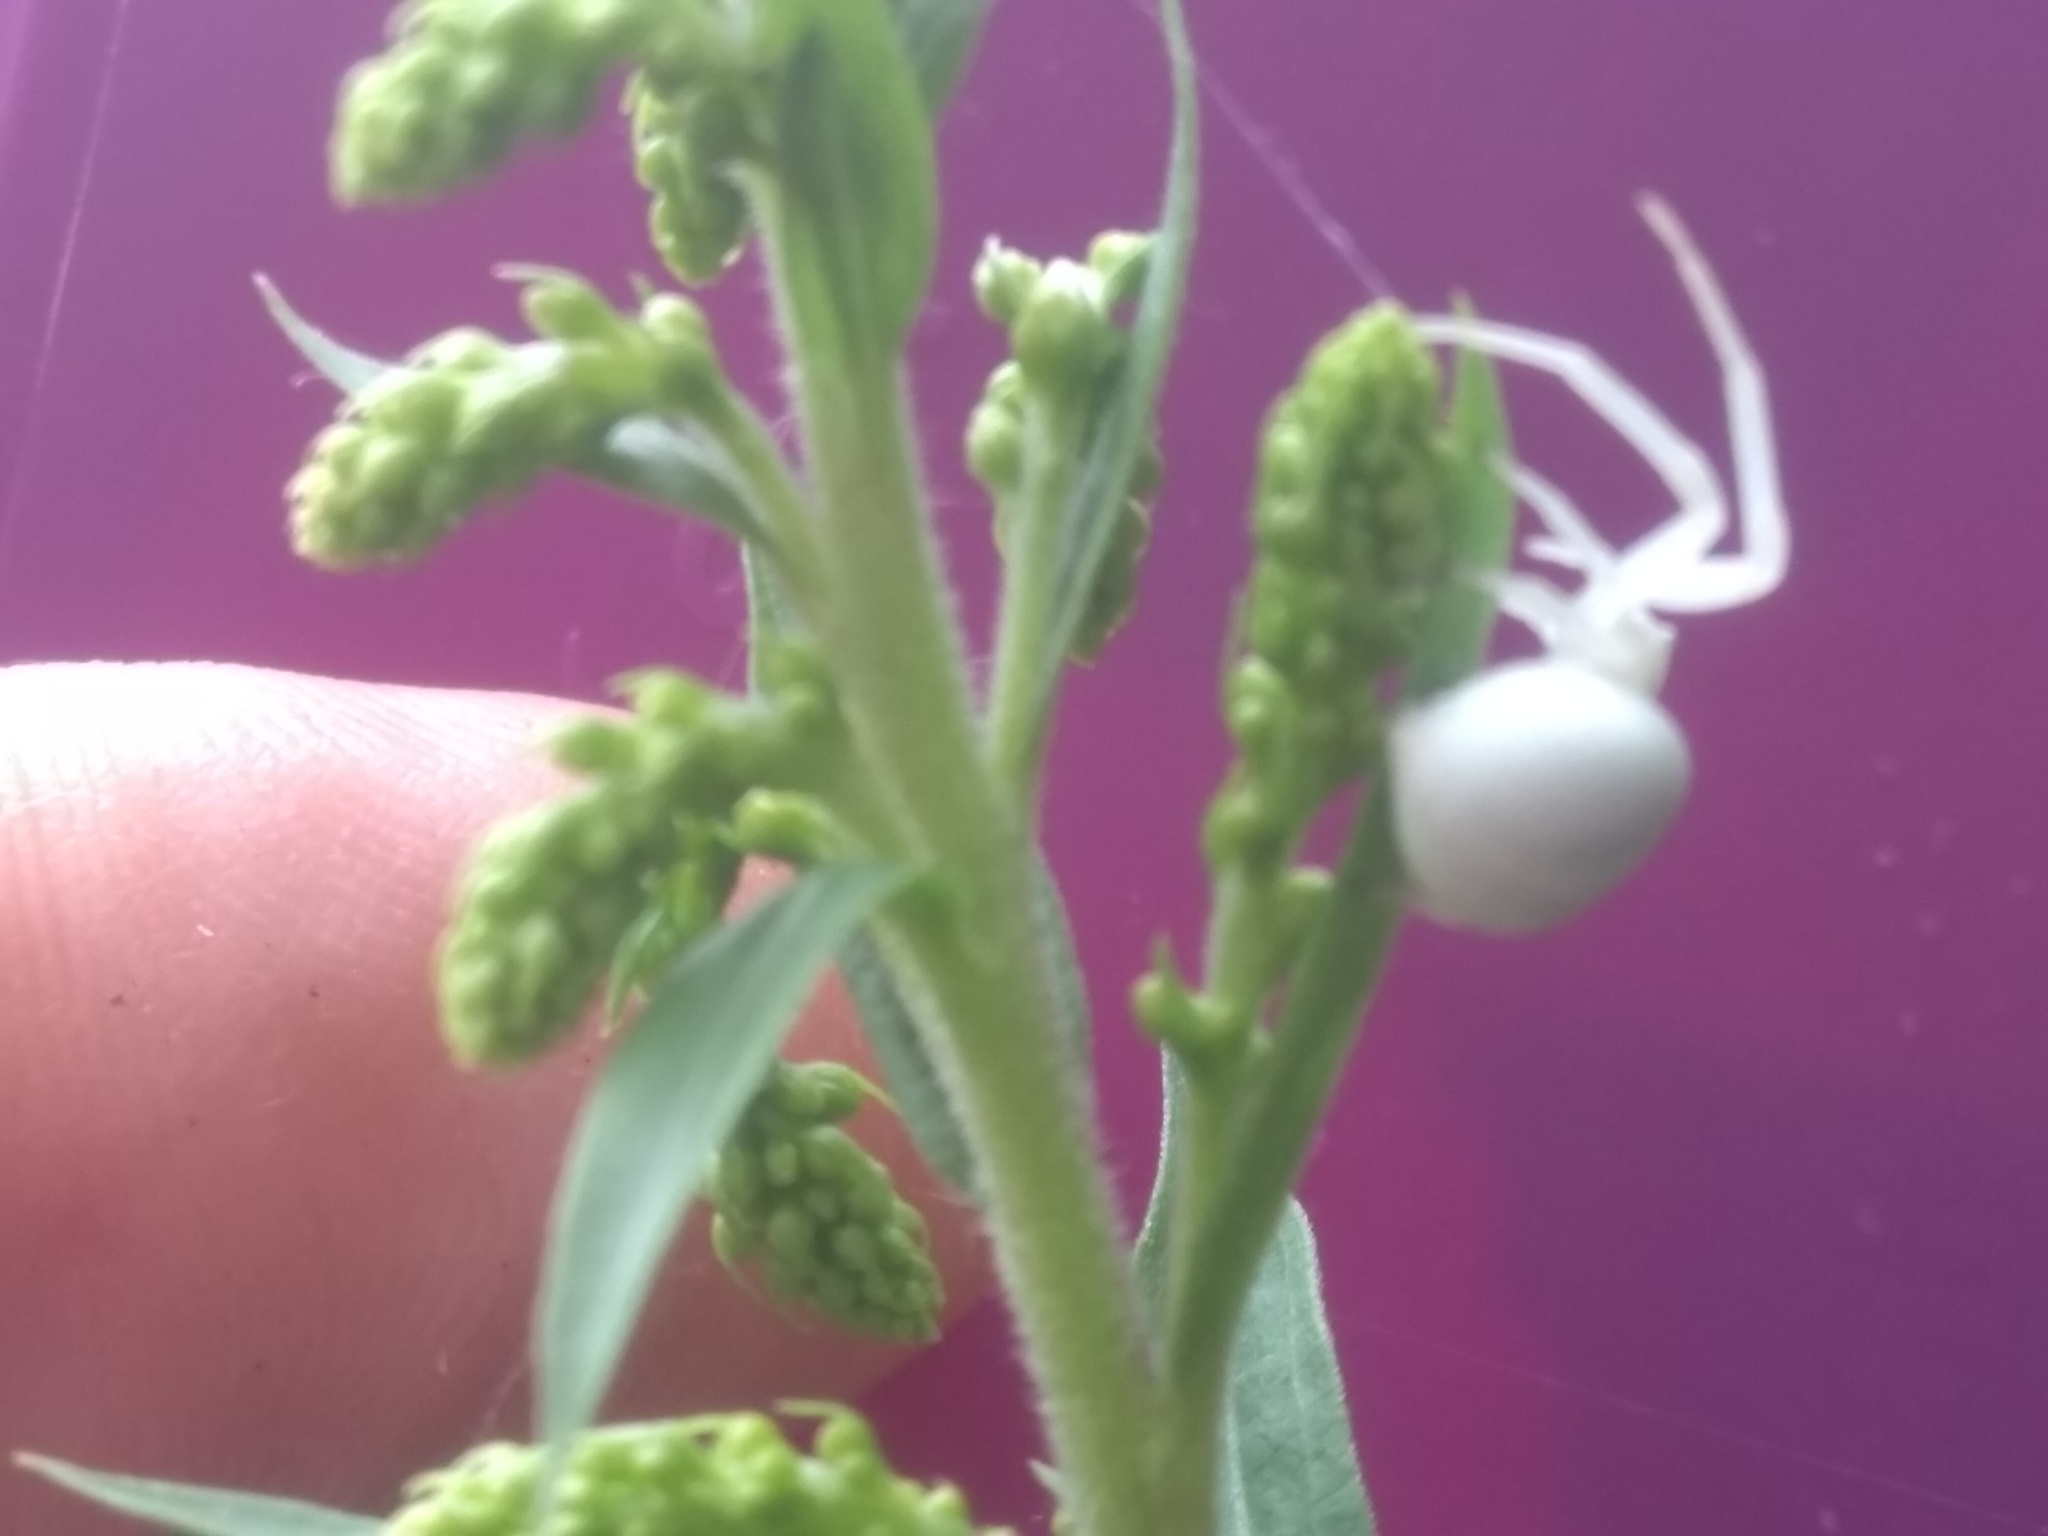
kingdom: Animalia
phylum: Arthropoda
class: Arachnida
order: Araneae
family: Thomisidae
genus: Misumena
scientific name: Misumena vatia
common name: Goldenrod crab spider
